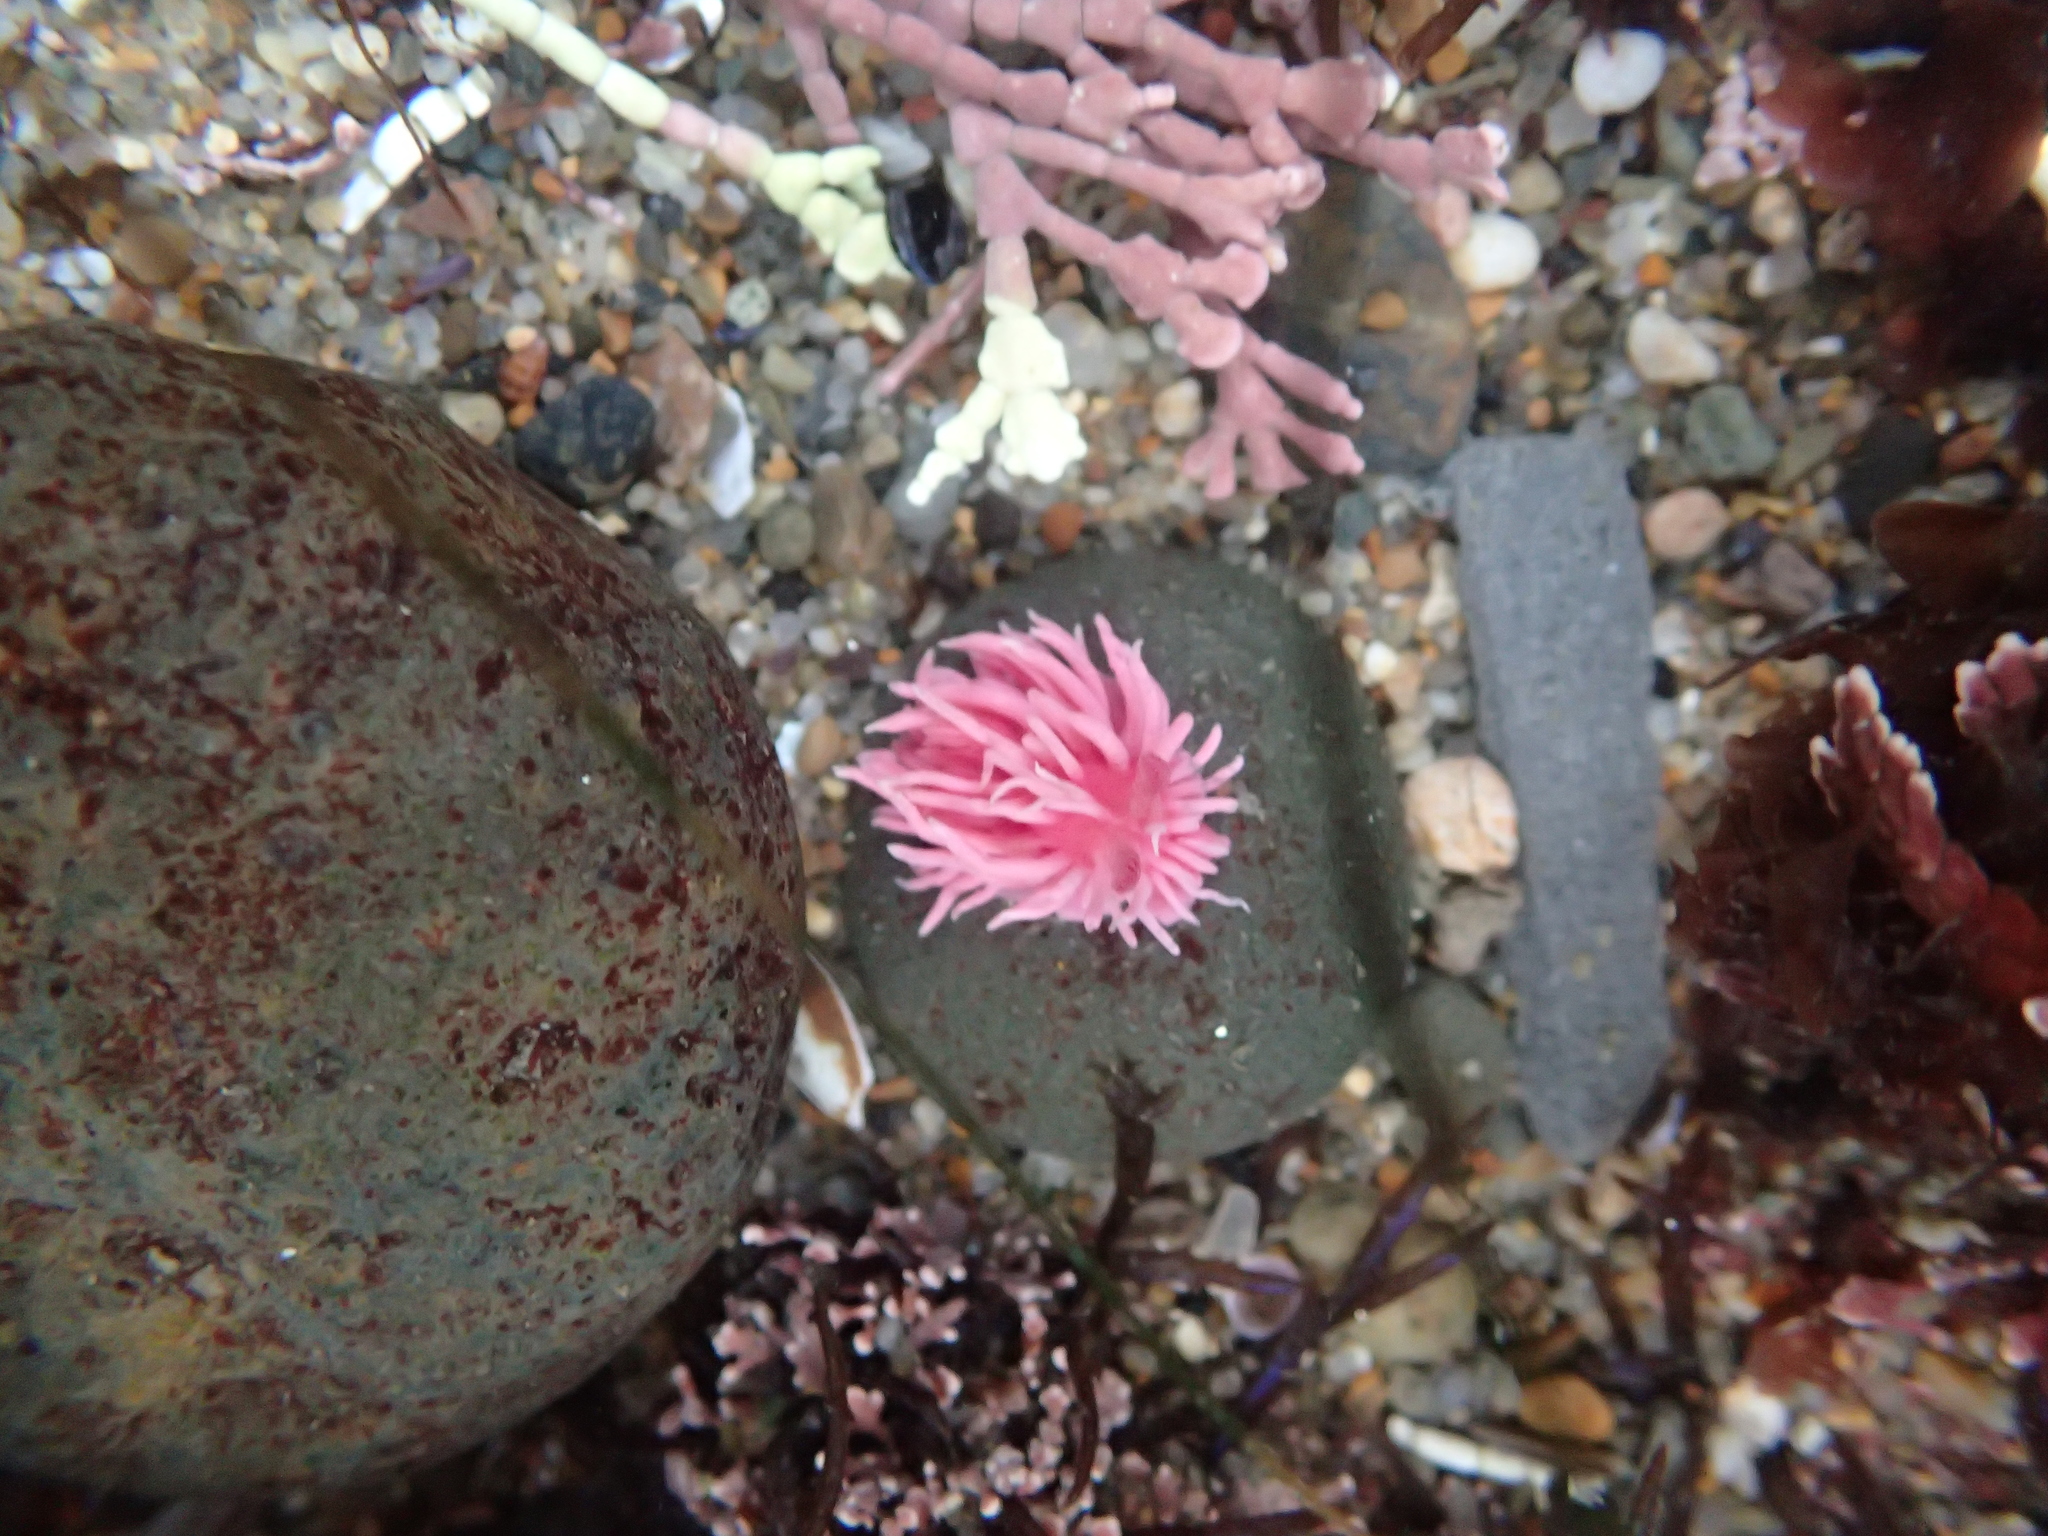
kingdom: Animalia
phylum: Mollusca
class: Gastropoda
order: Nudibranchia
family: Goniodorididae
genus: Okenia
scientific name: Okenia
